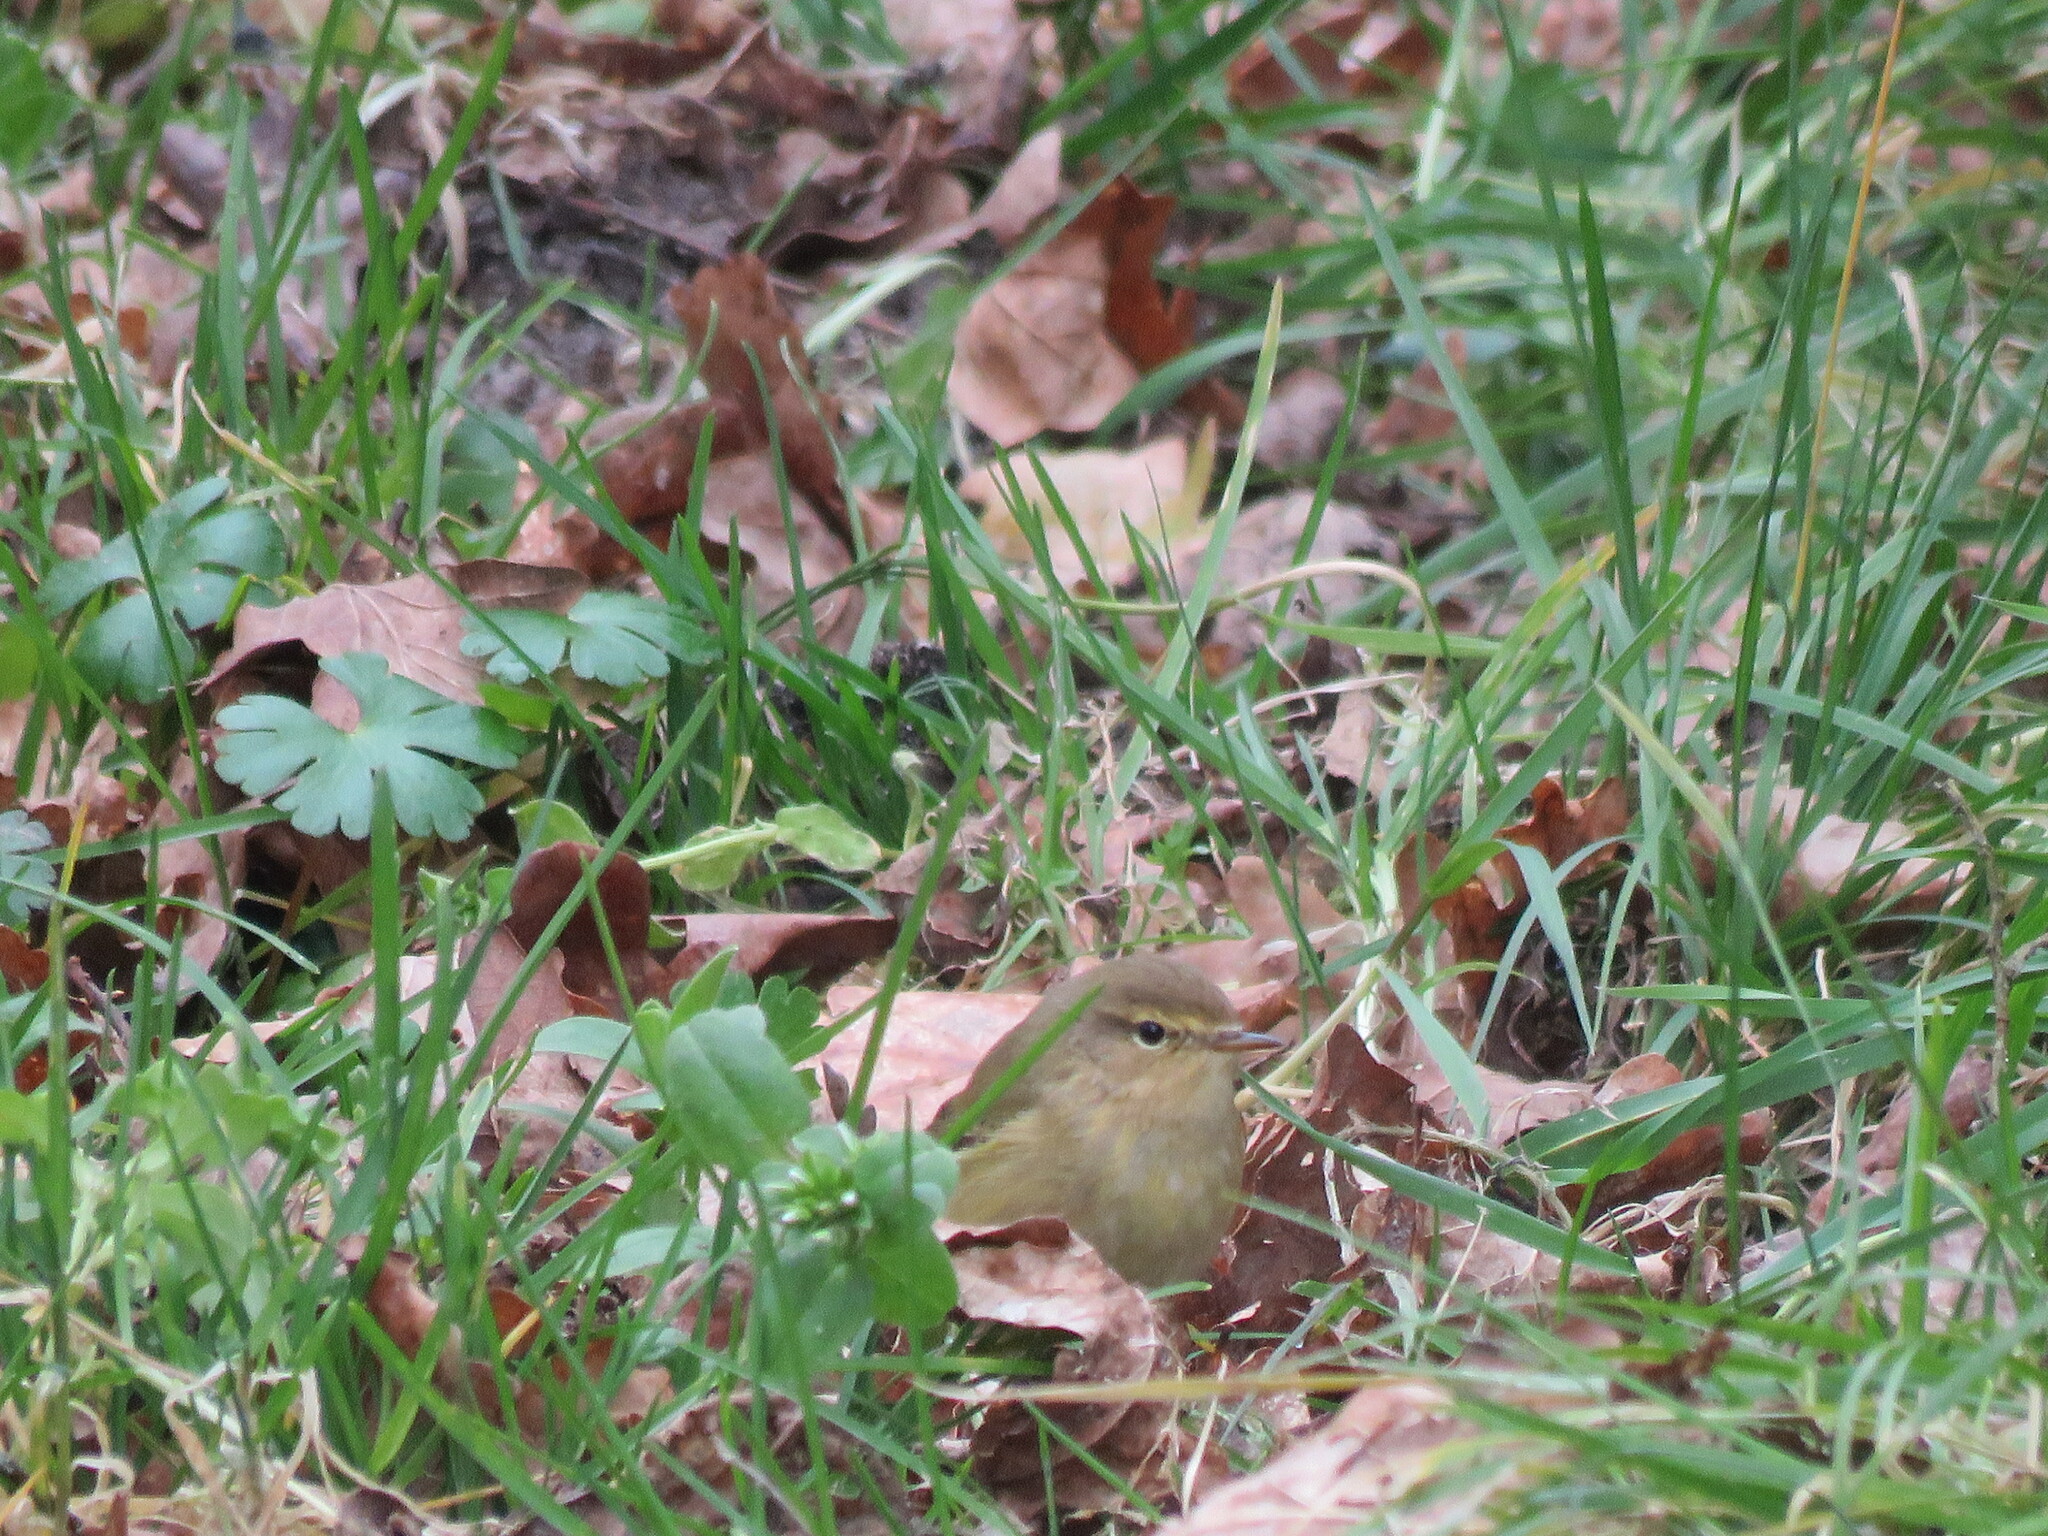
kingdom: Animalia
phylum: Chordata
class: Aves
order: Passeriformes
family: Phylloscopidae
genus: Phylloscopus
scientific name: Phylloscopus collybita
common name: Common chiffchaff
